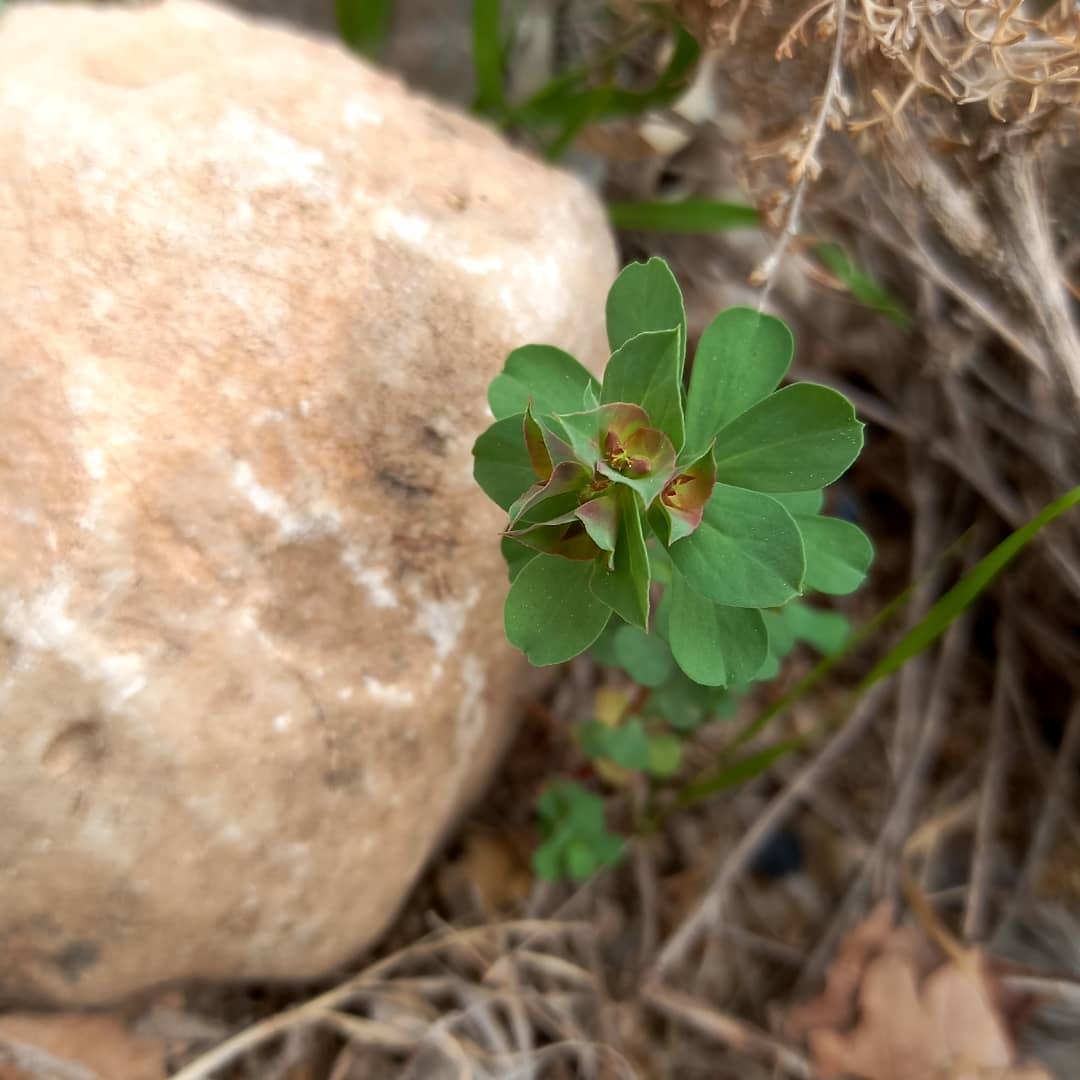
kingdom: Plantae
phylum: Tracheophyta
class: Magnoliopsida
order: Malpighiales
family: Euphorbiaceae
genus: Euphorbia
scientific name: Euphorbia falcata
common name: Sickle spurge
